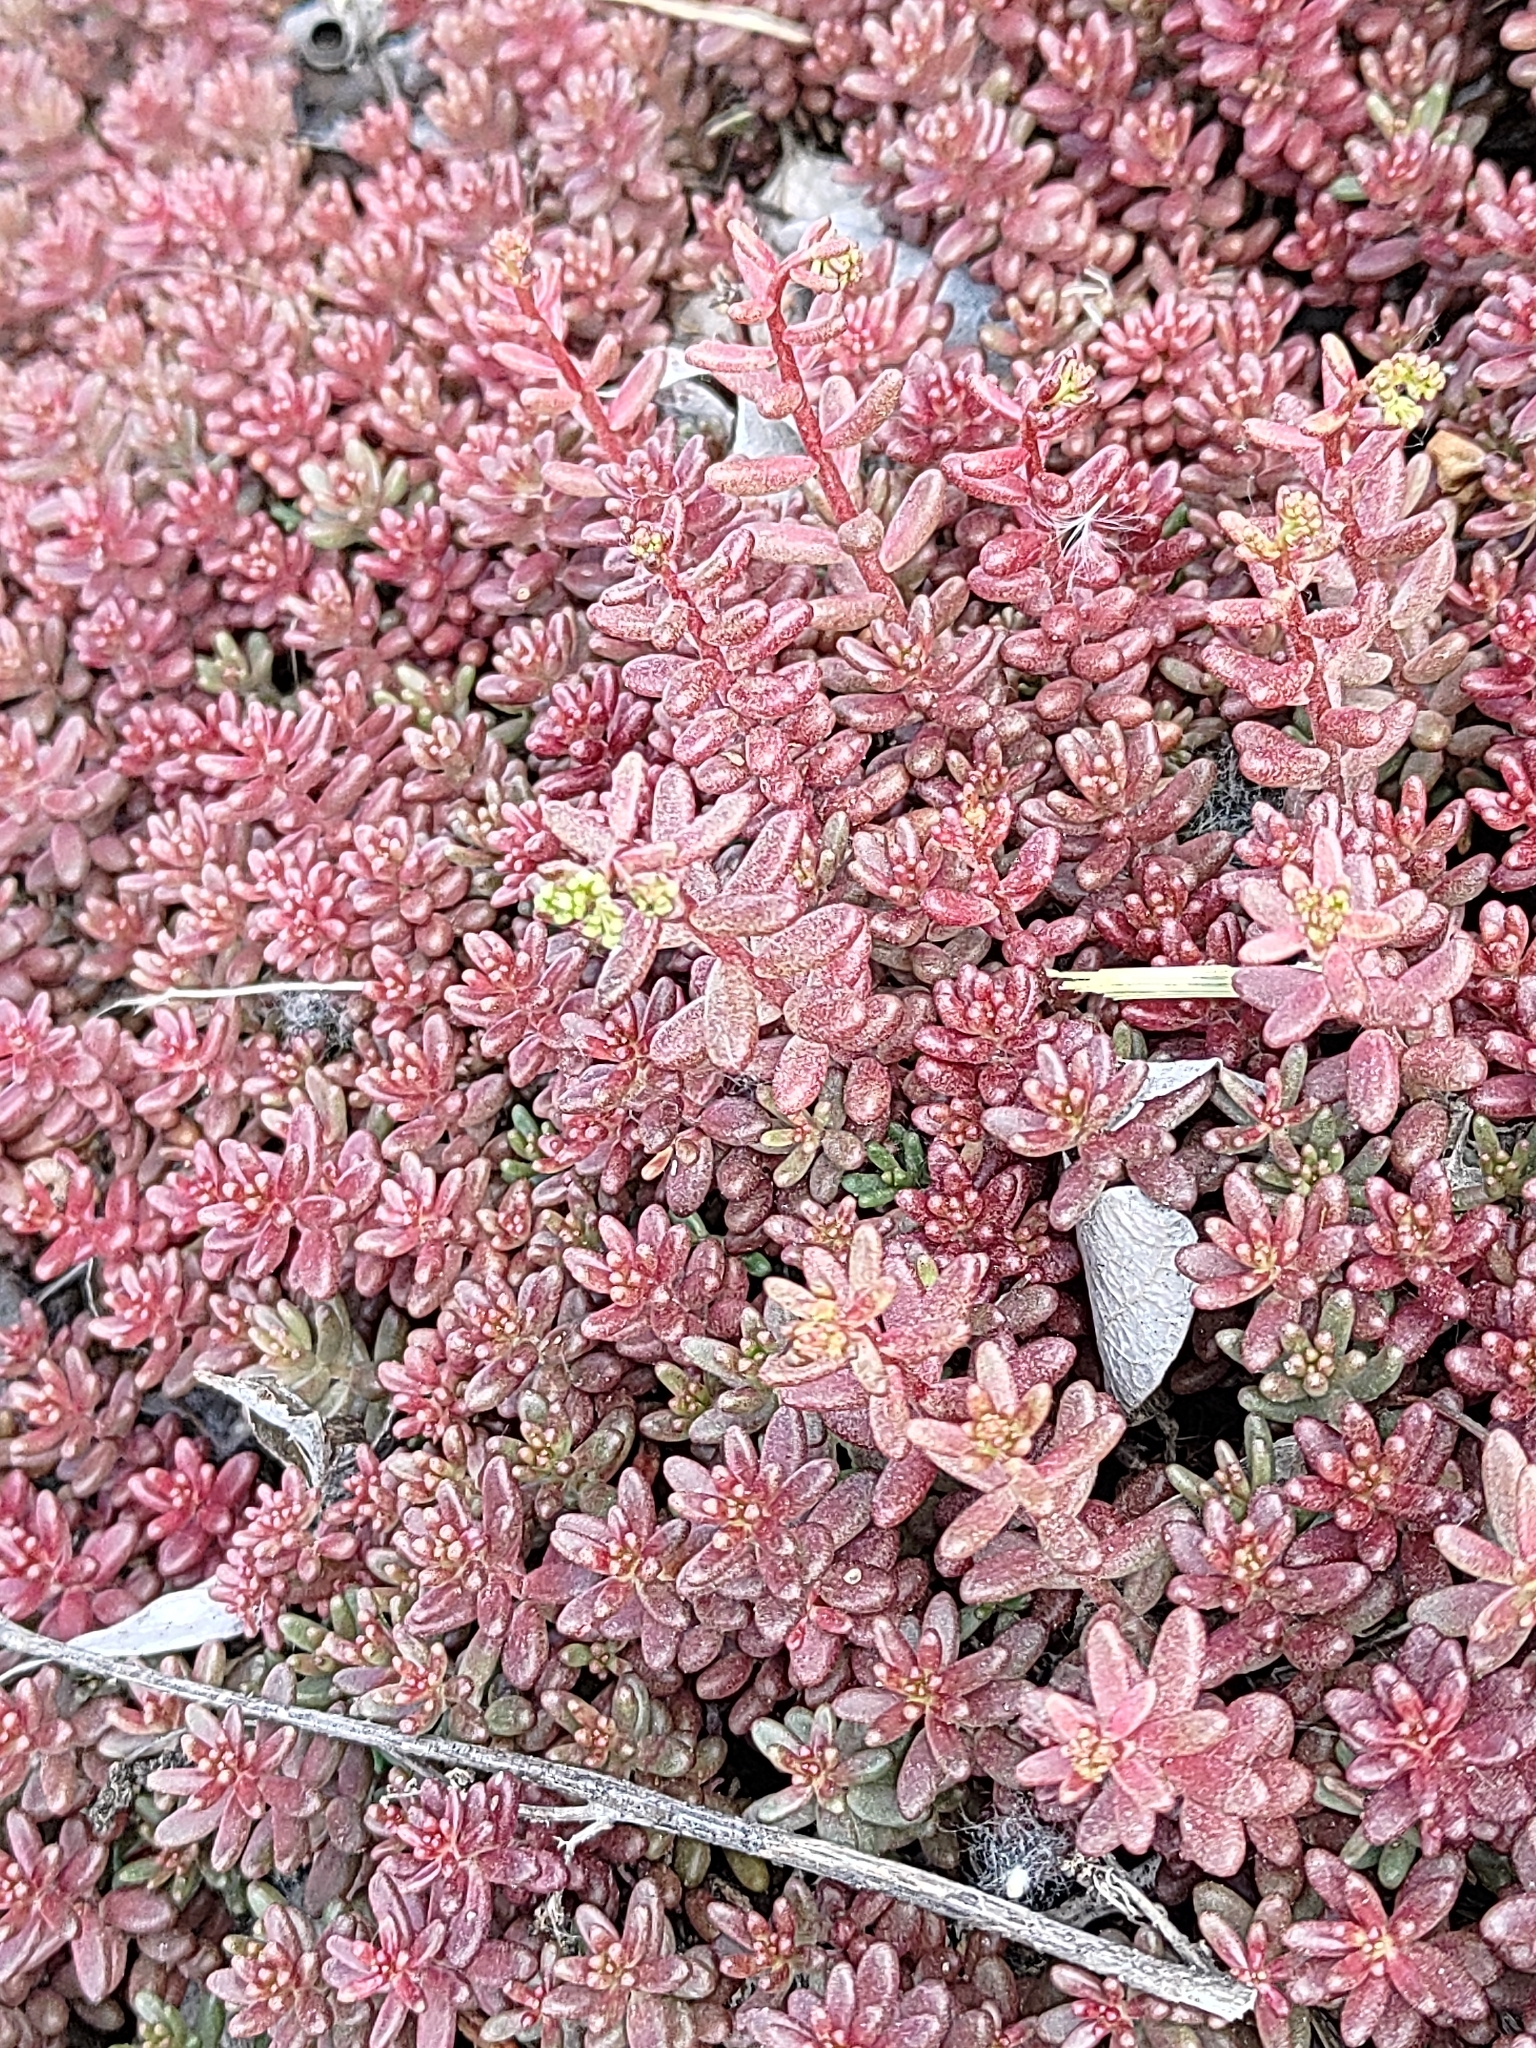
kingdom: Plantae
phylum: Tracheophyta
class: Magnoliopsida
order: Saxifragales
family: Crassulaceae
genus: Sedum
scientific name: Sedum album
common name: White stonecrop
